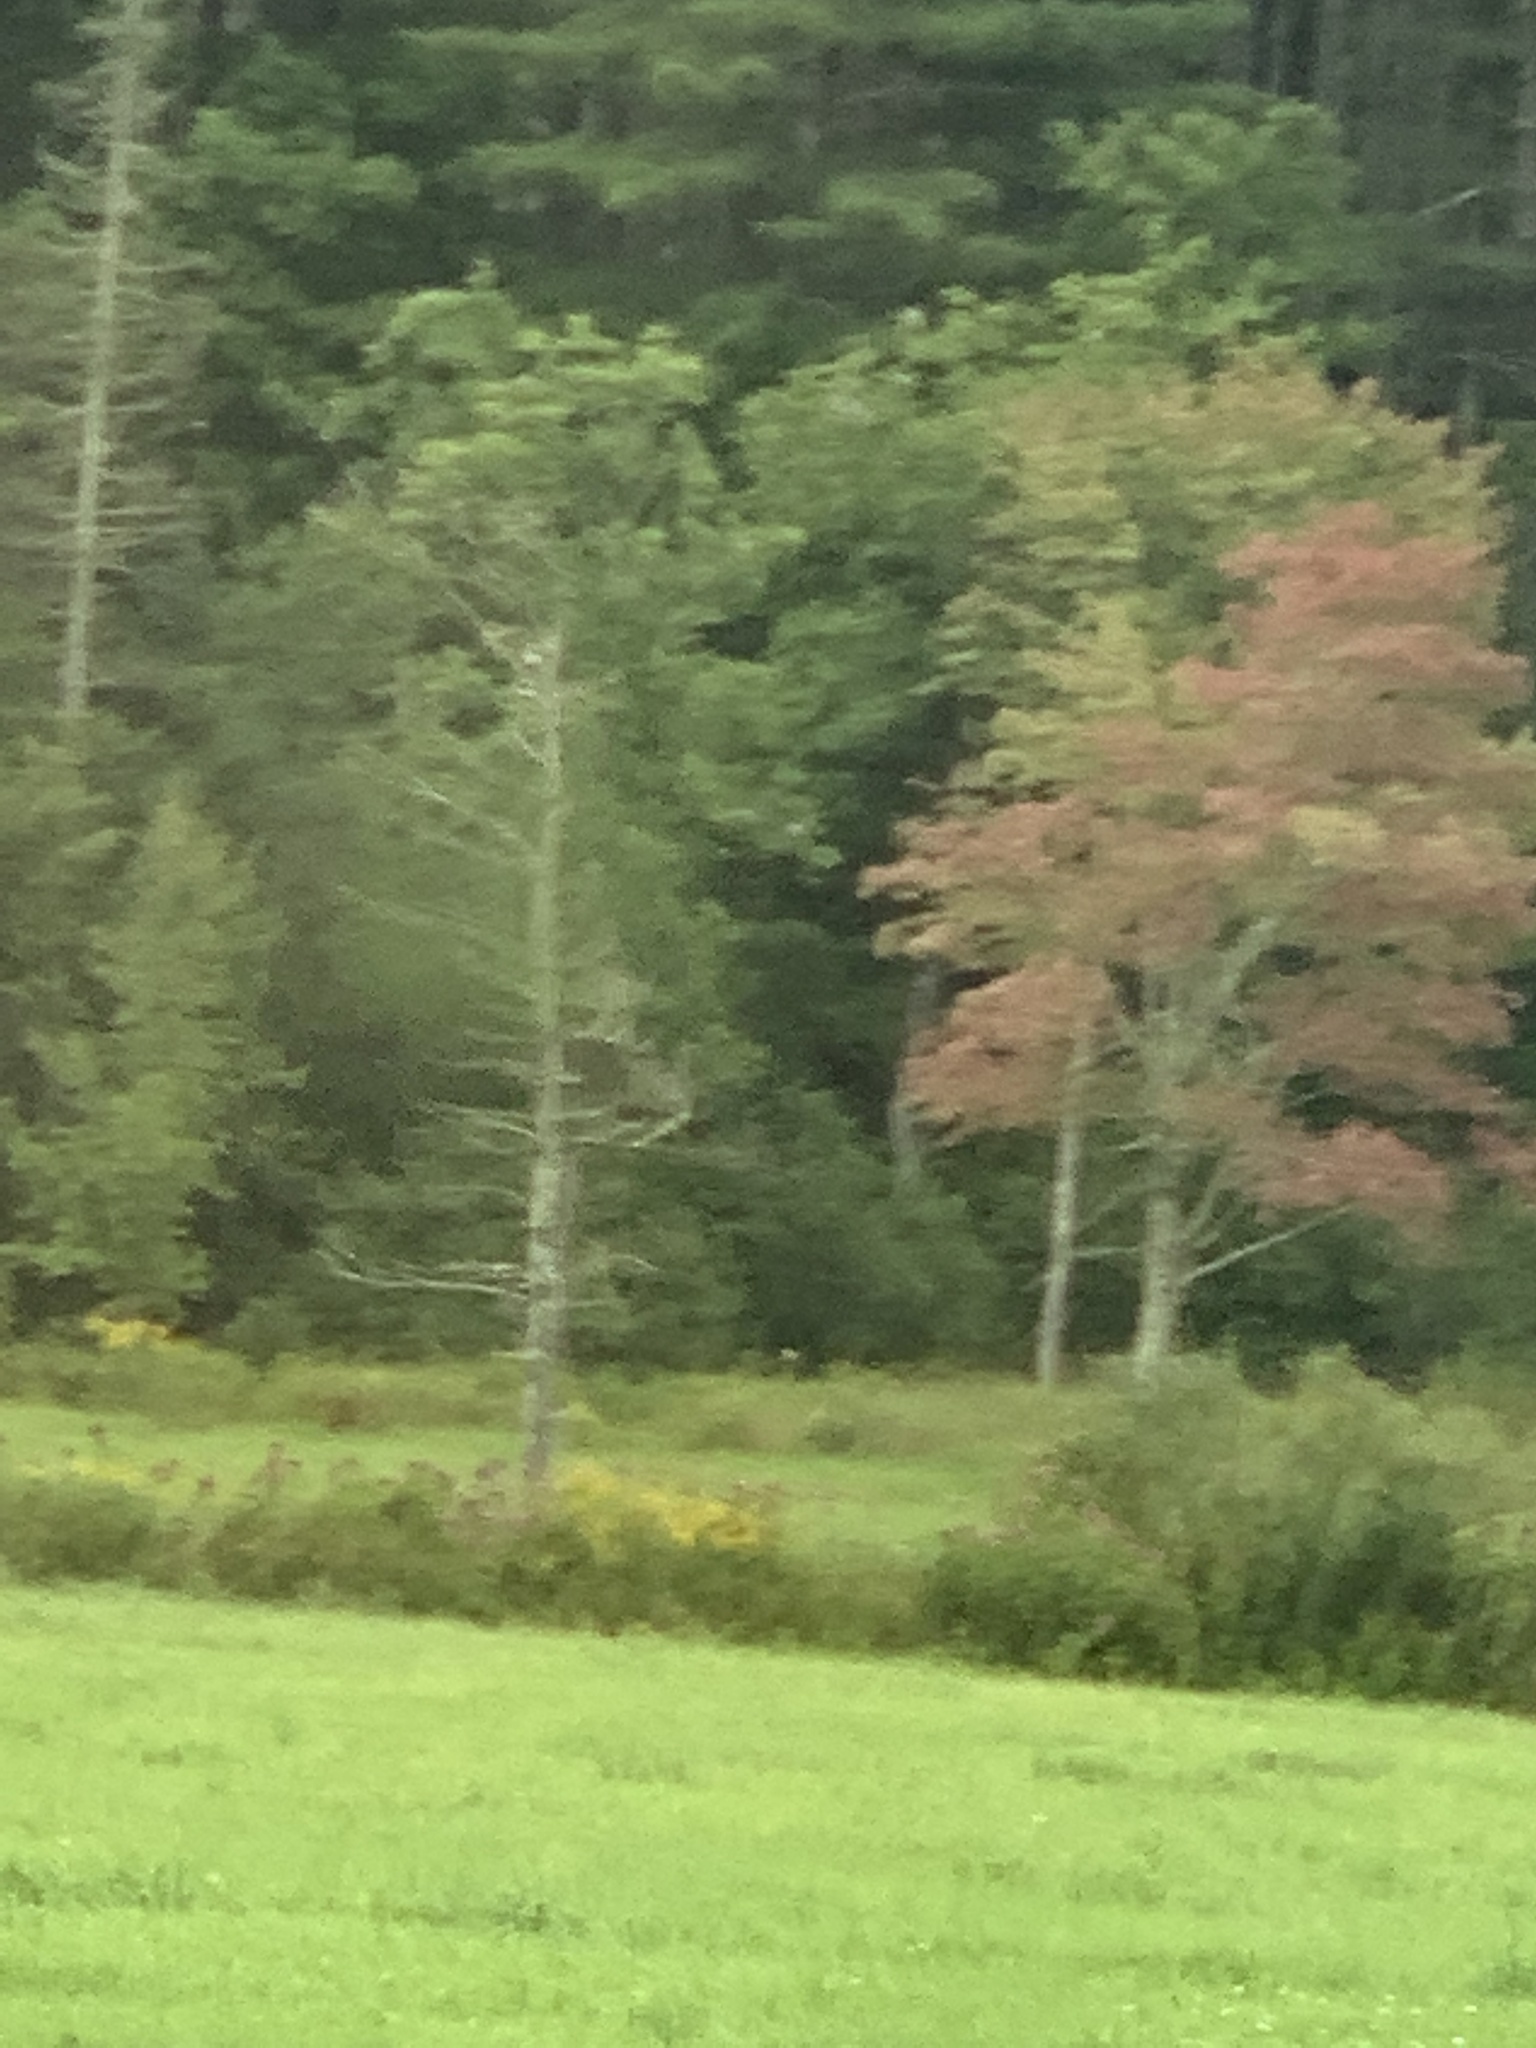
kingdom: Plantae
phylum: Tracheophyta
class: Magnoliopsida
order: Sapindales
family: Sapindaceae
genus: Acer
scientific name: Acer rubrum
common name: Red maple
